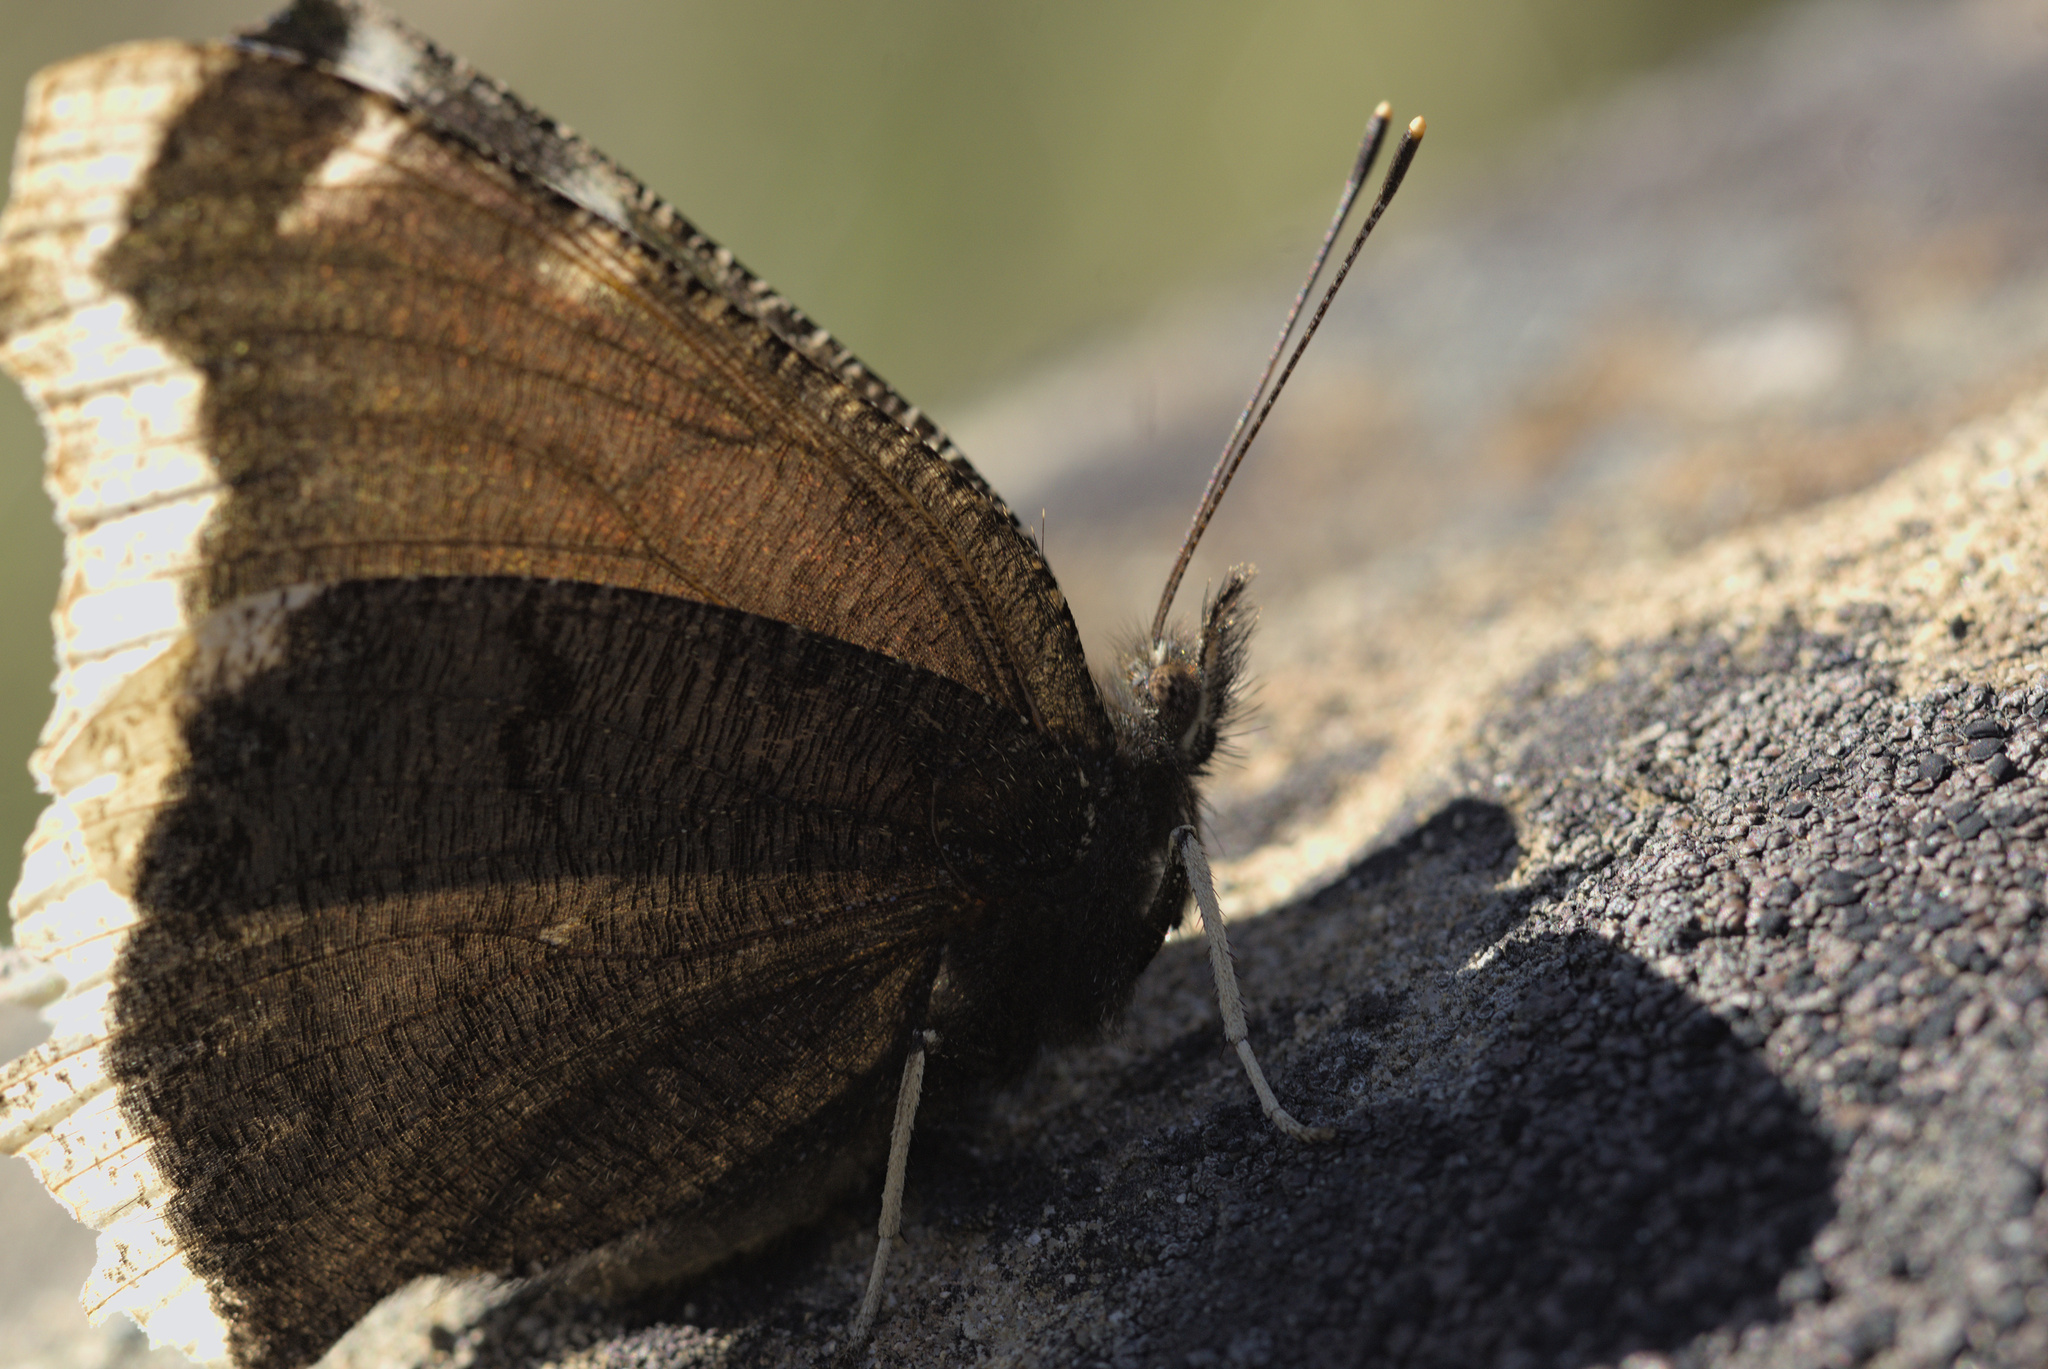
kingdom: Animalia
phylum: Arthropoda
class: Insecta
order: Lepidoptera
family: Nymphalidae
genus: Nymphalis
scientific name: Nymphalis antiopa
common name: Camberwell beauty
